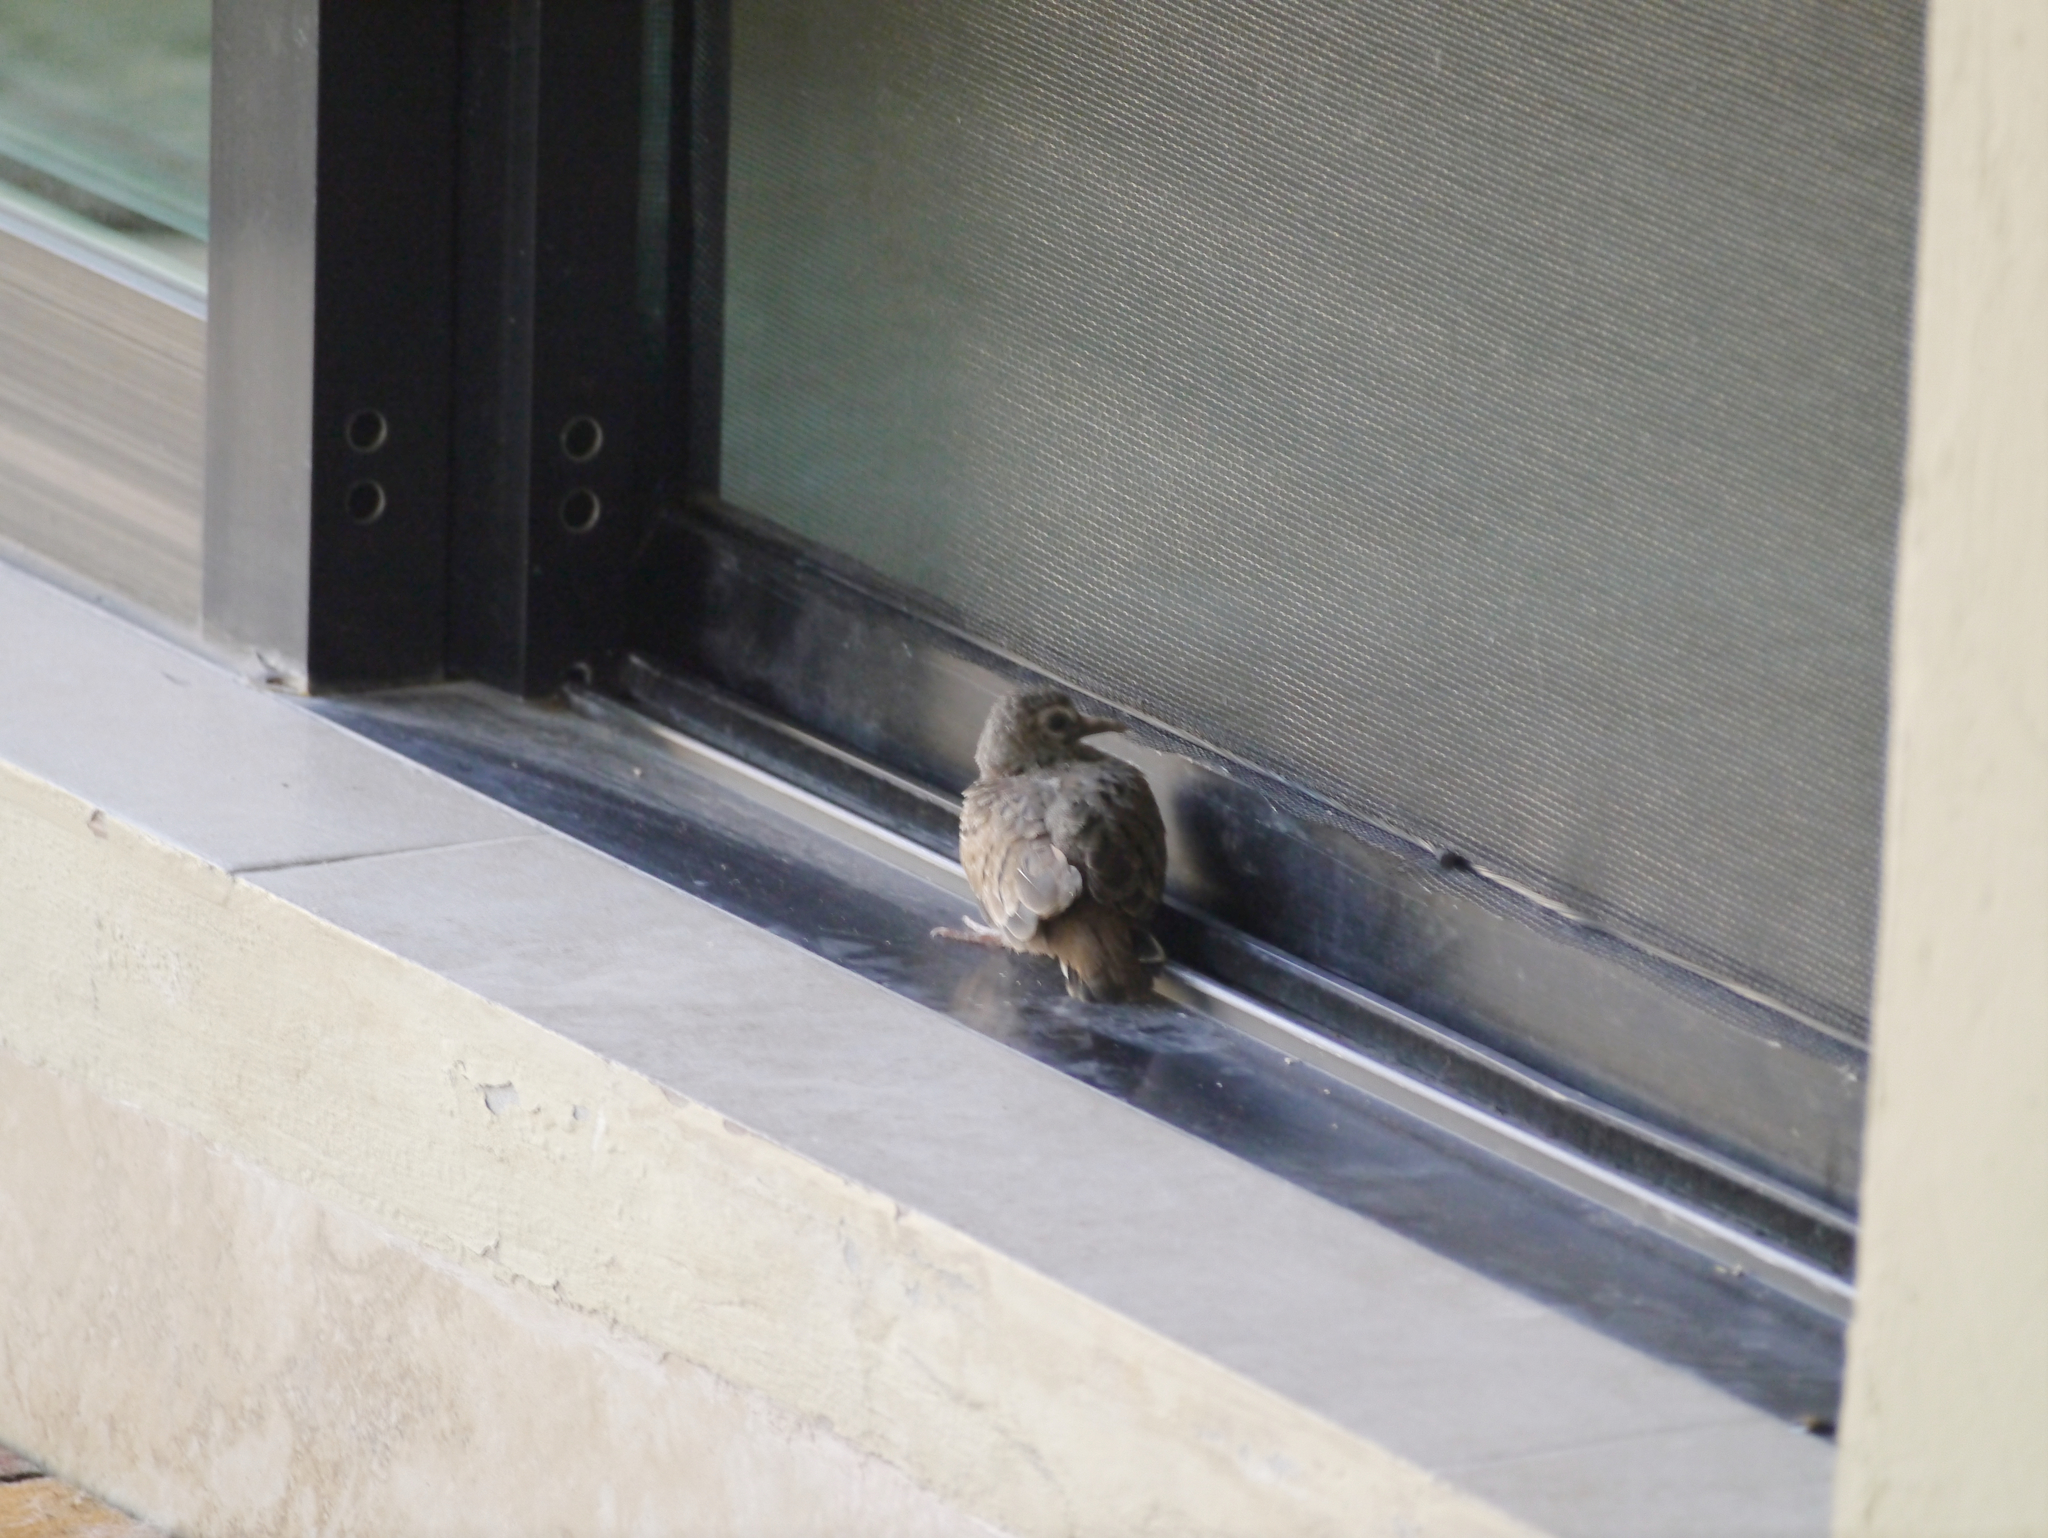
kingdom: Animalia
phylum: Chordata
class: Aves
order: Columbiformes
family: Columbidae
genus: Columbina
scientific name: Columbina talpacoti
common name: Ruddy ground dove
